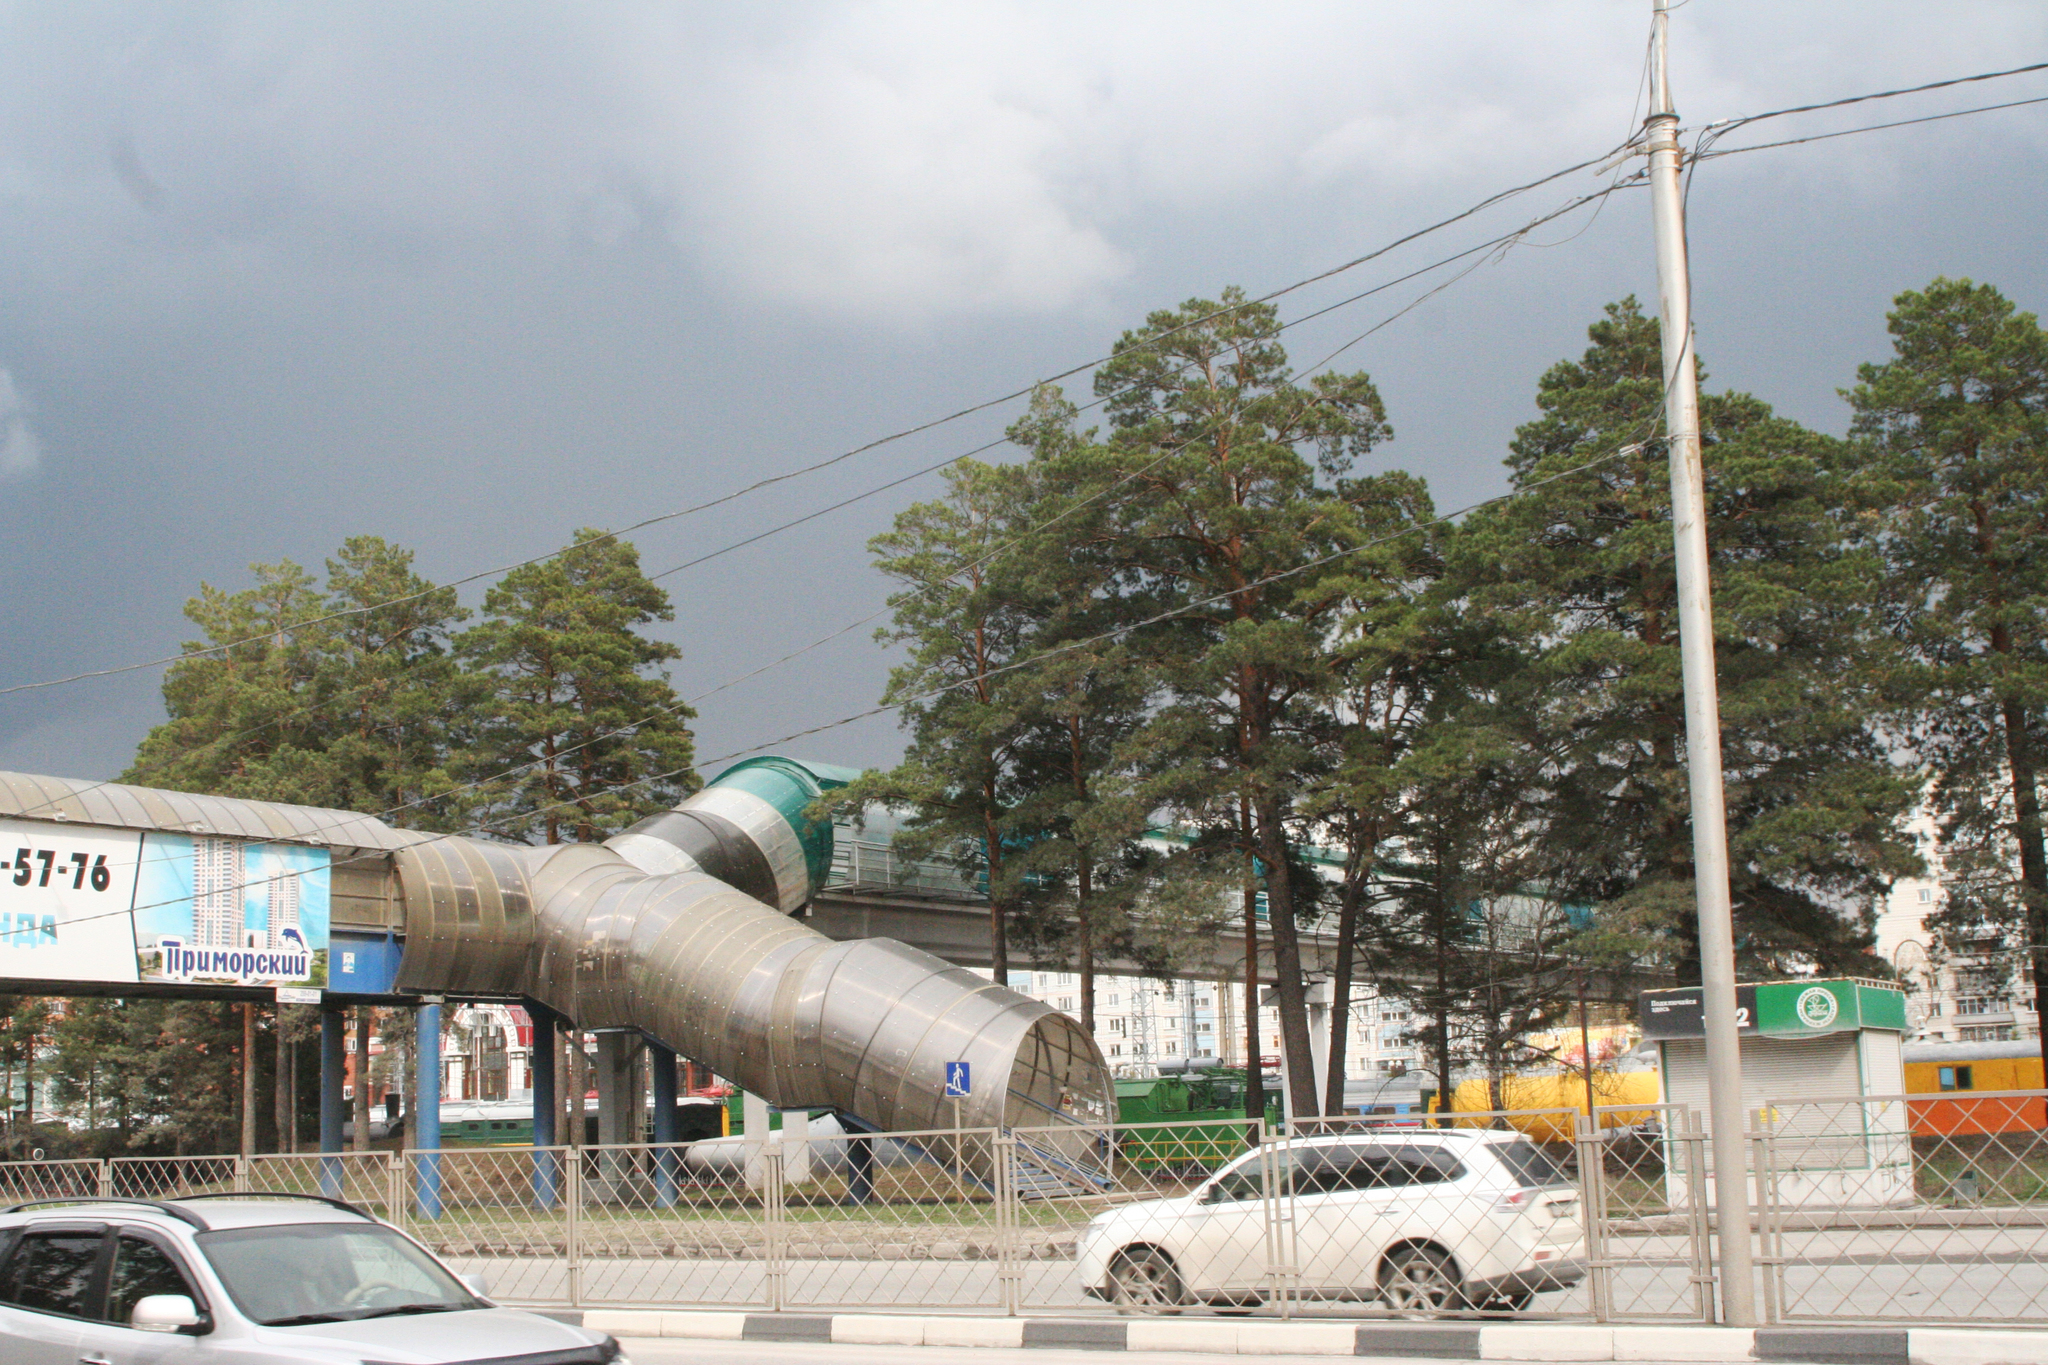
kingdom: Plantae
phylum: Tracheophyta
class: Pinopsida
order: Pinales
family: Pinaceae
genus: Pinus
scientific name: Pinus sylvestris
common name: Scots pine
